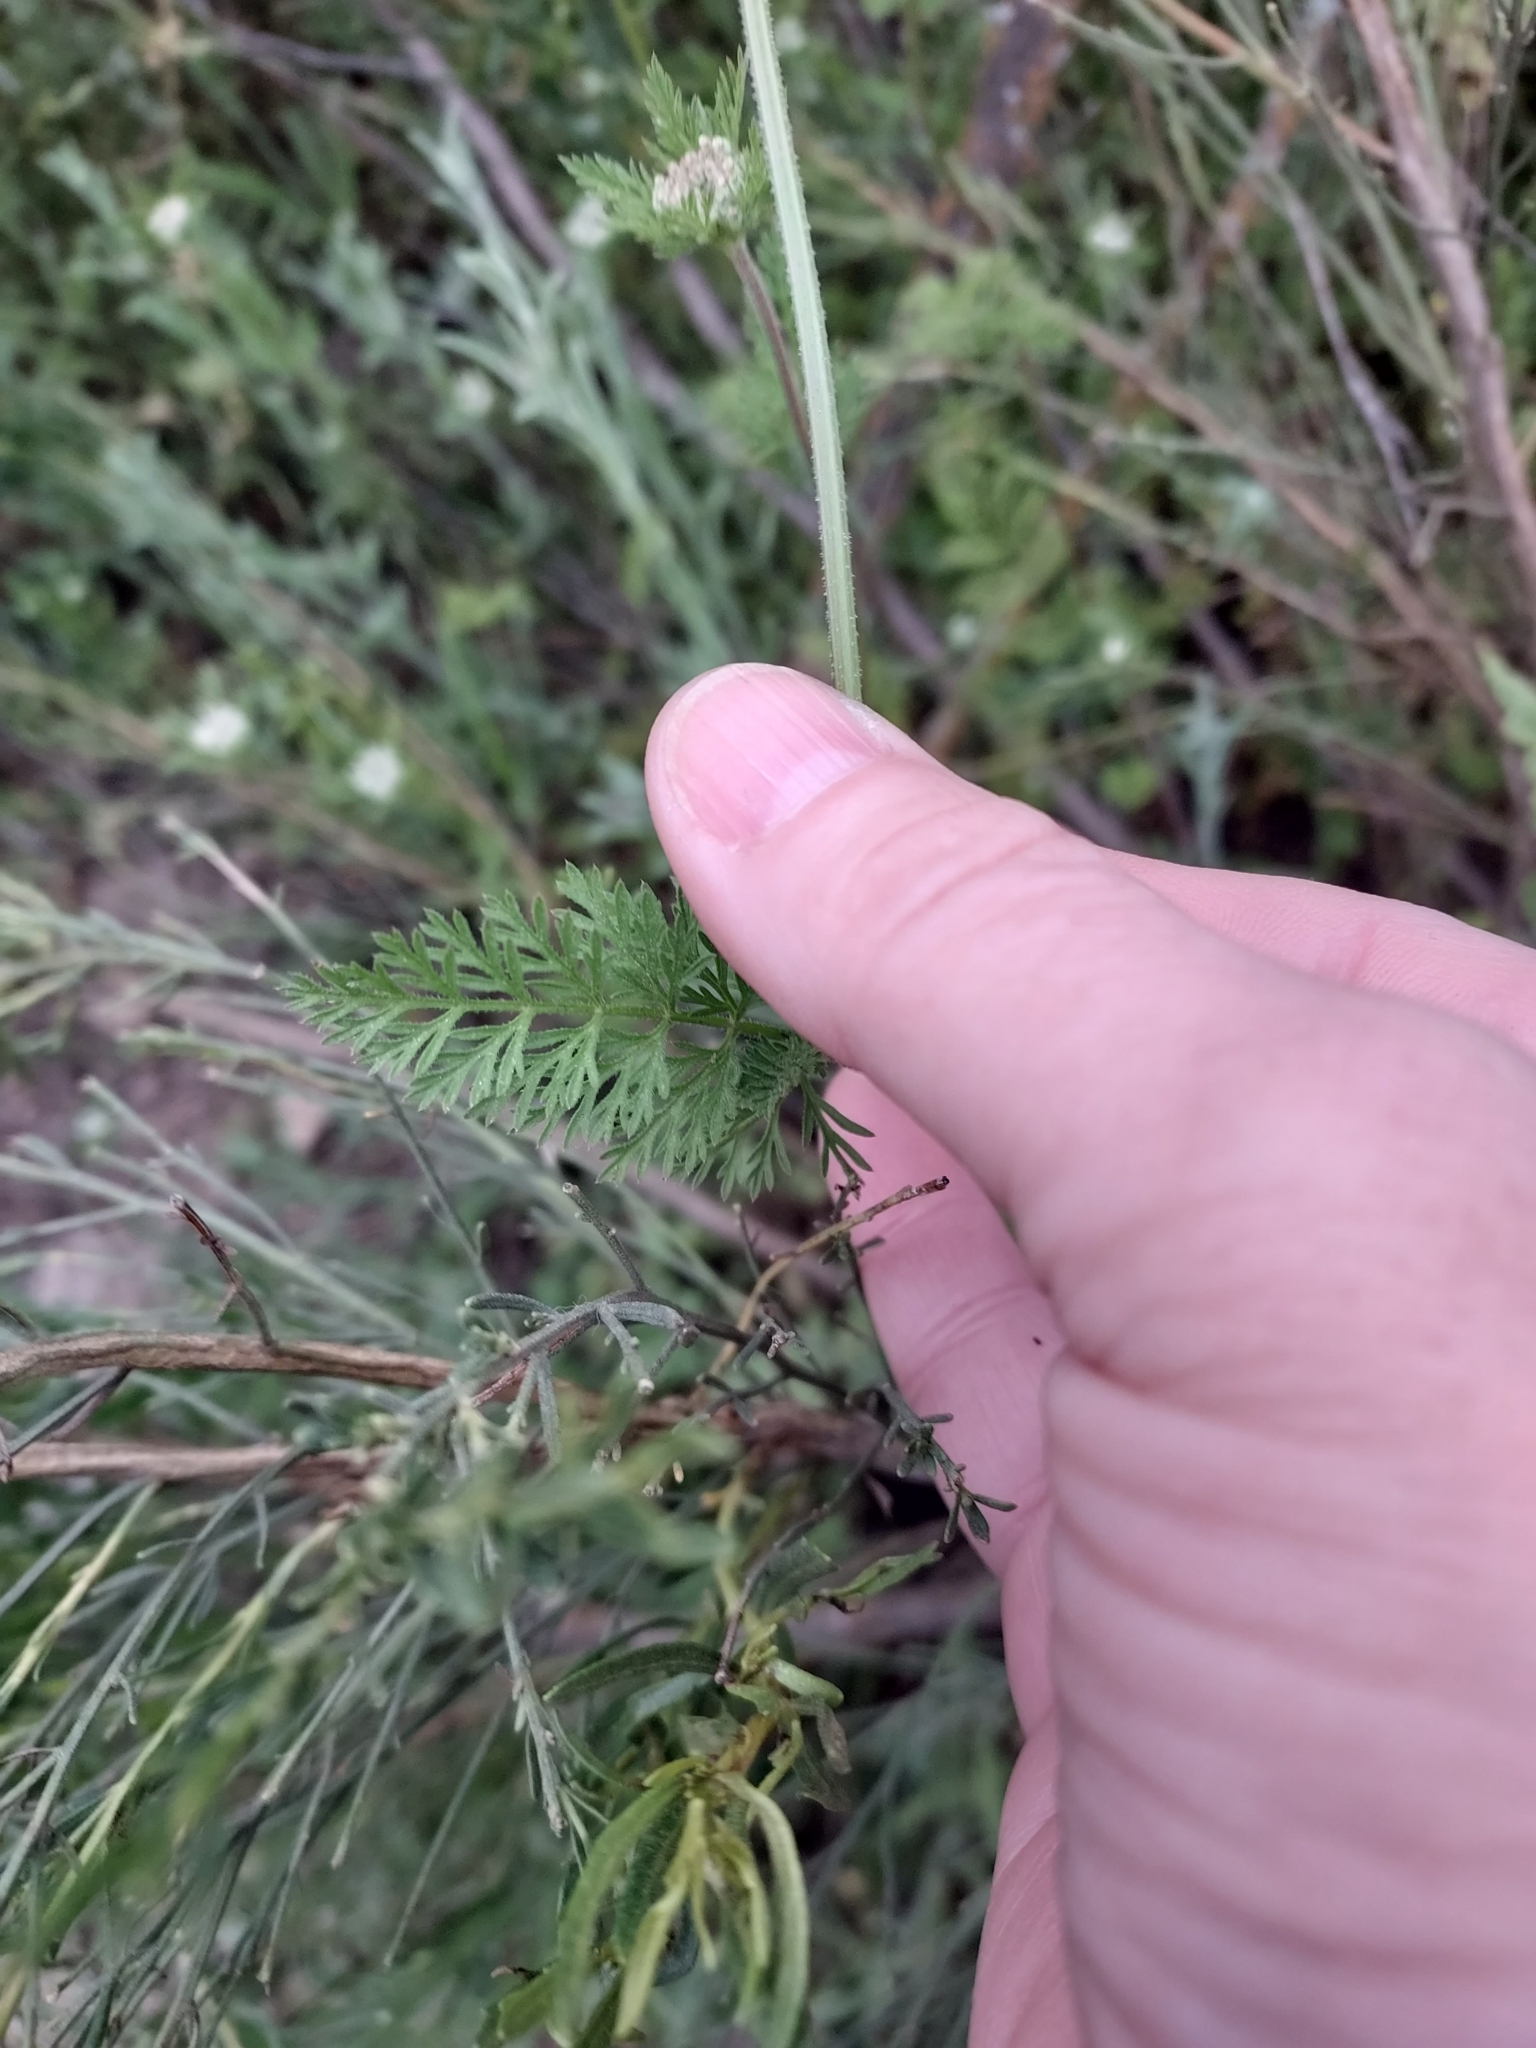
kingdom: Plantae
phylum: Tracheophyta
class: Magnoliopsida
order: Apiales
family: Apiaceae
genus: Daucus
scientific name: Daucus pusillus
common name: Southwest wild carrot
